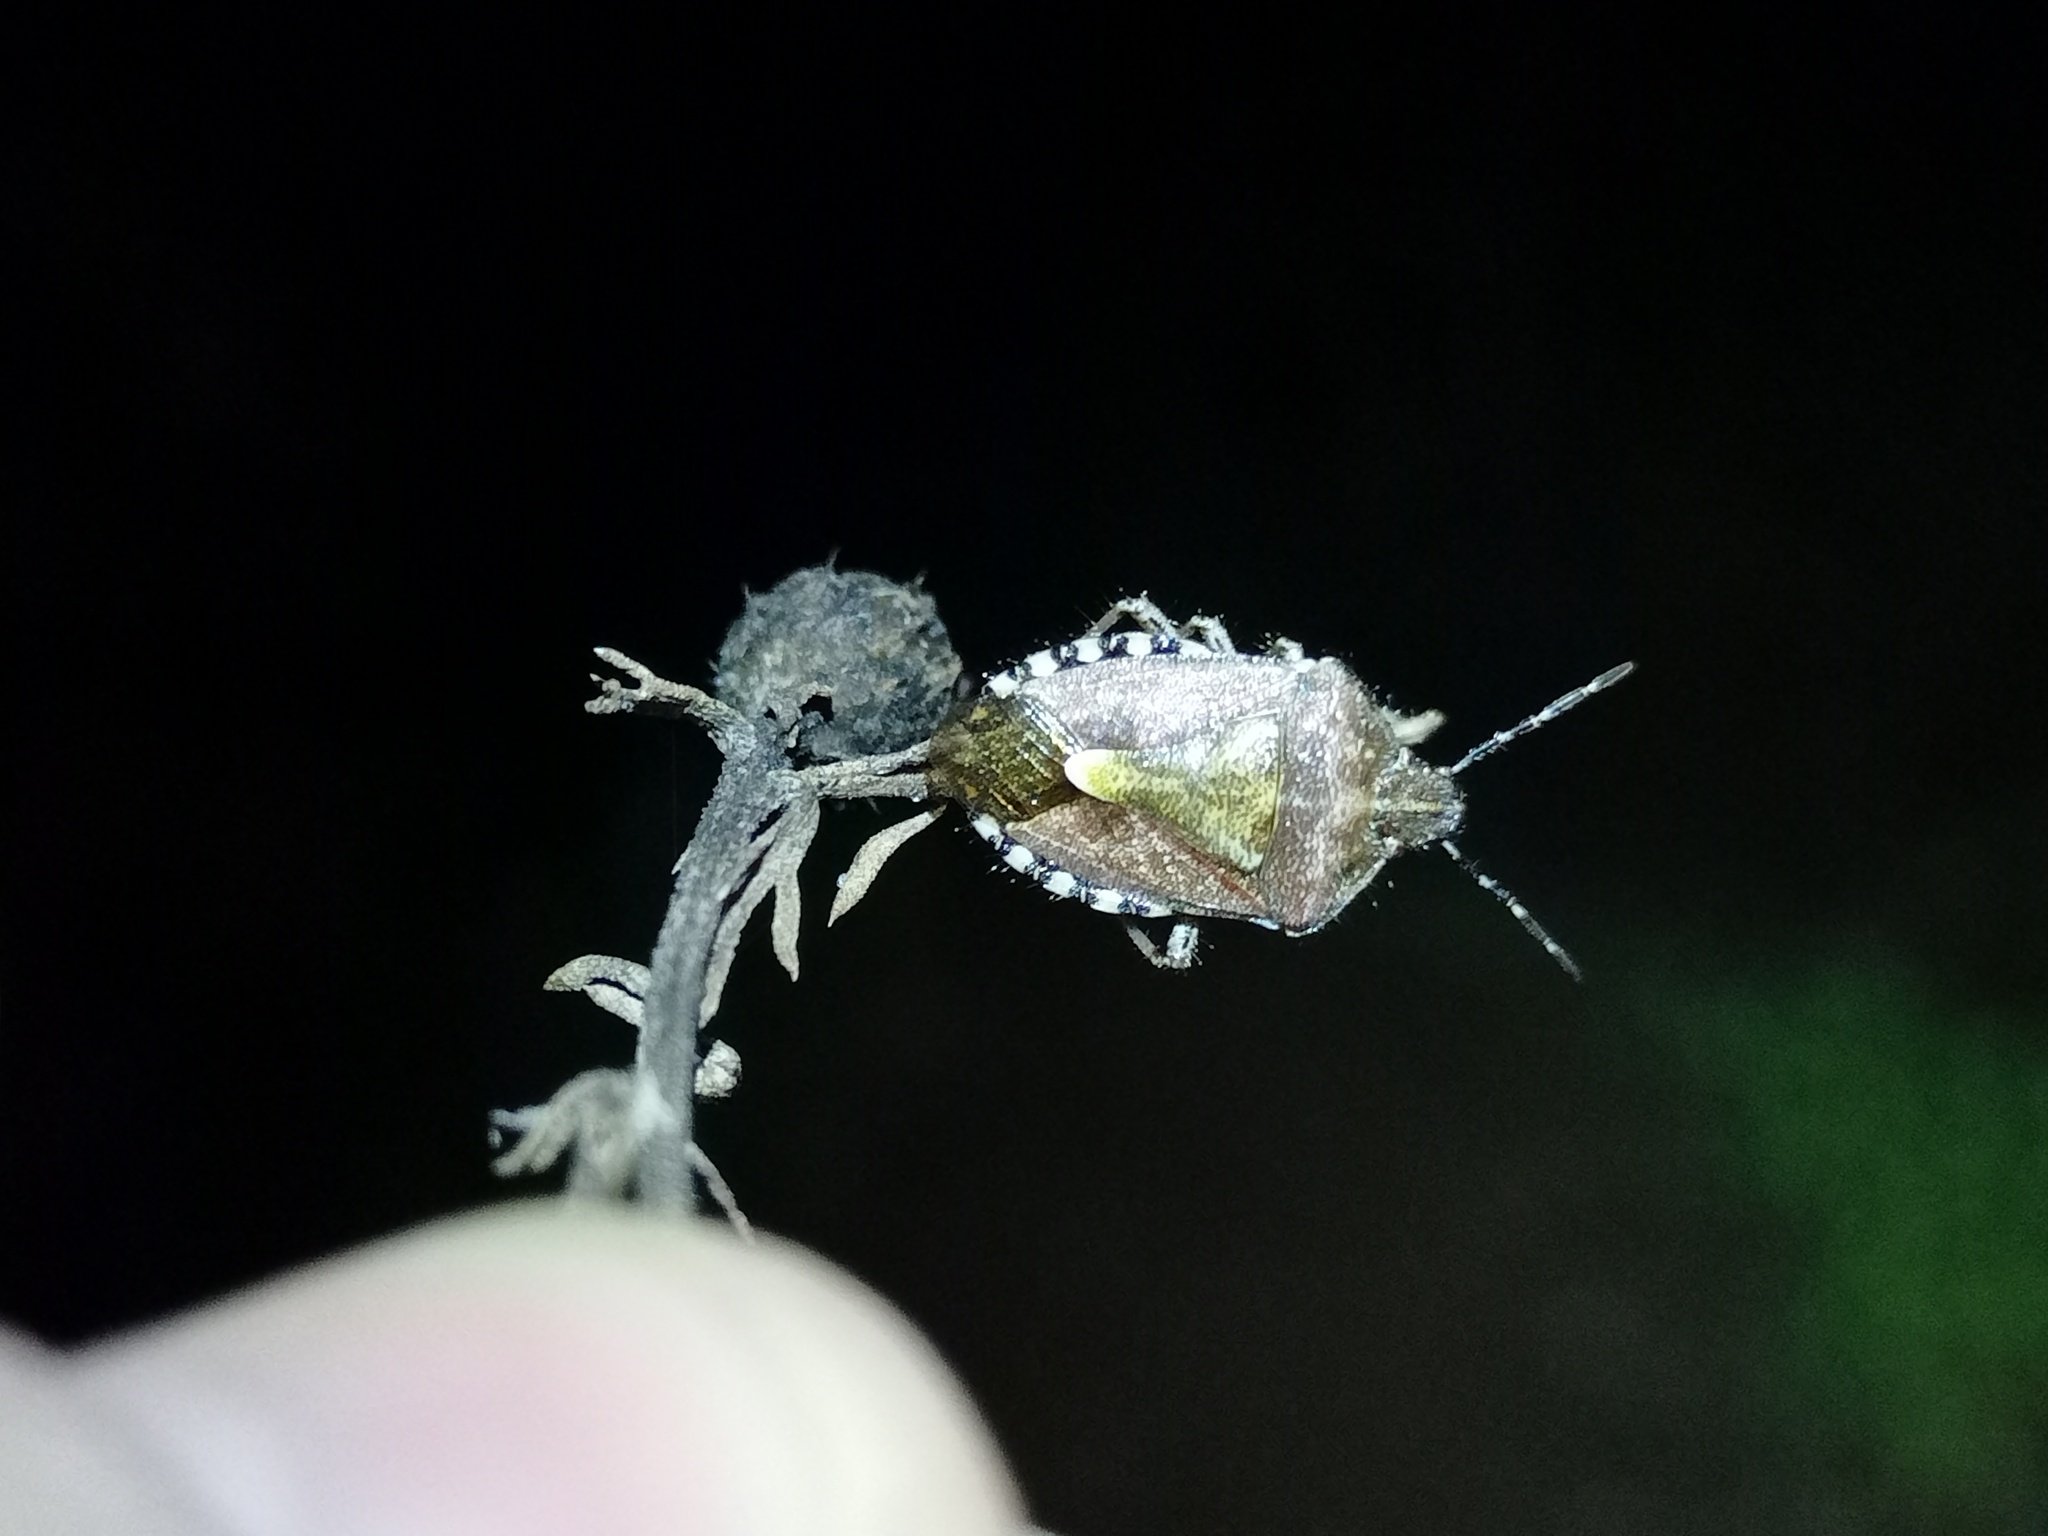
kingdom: Animalia
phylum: Arthropoda
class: Insecta
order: Hemiptera
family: Pentatomidae
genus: Dolycoris
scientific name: Dolycoris baccarum
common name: Sloe bug
